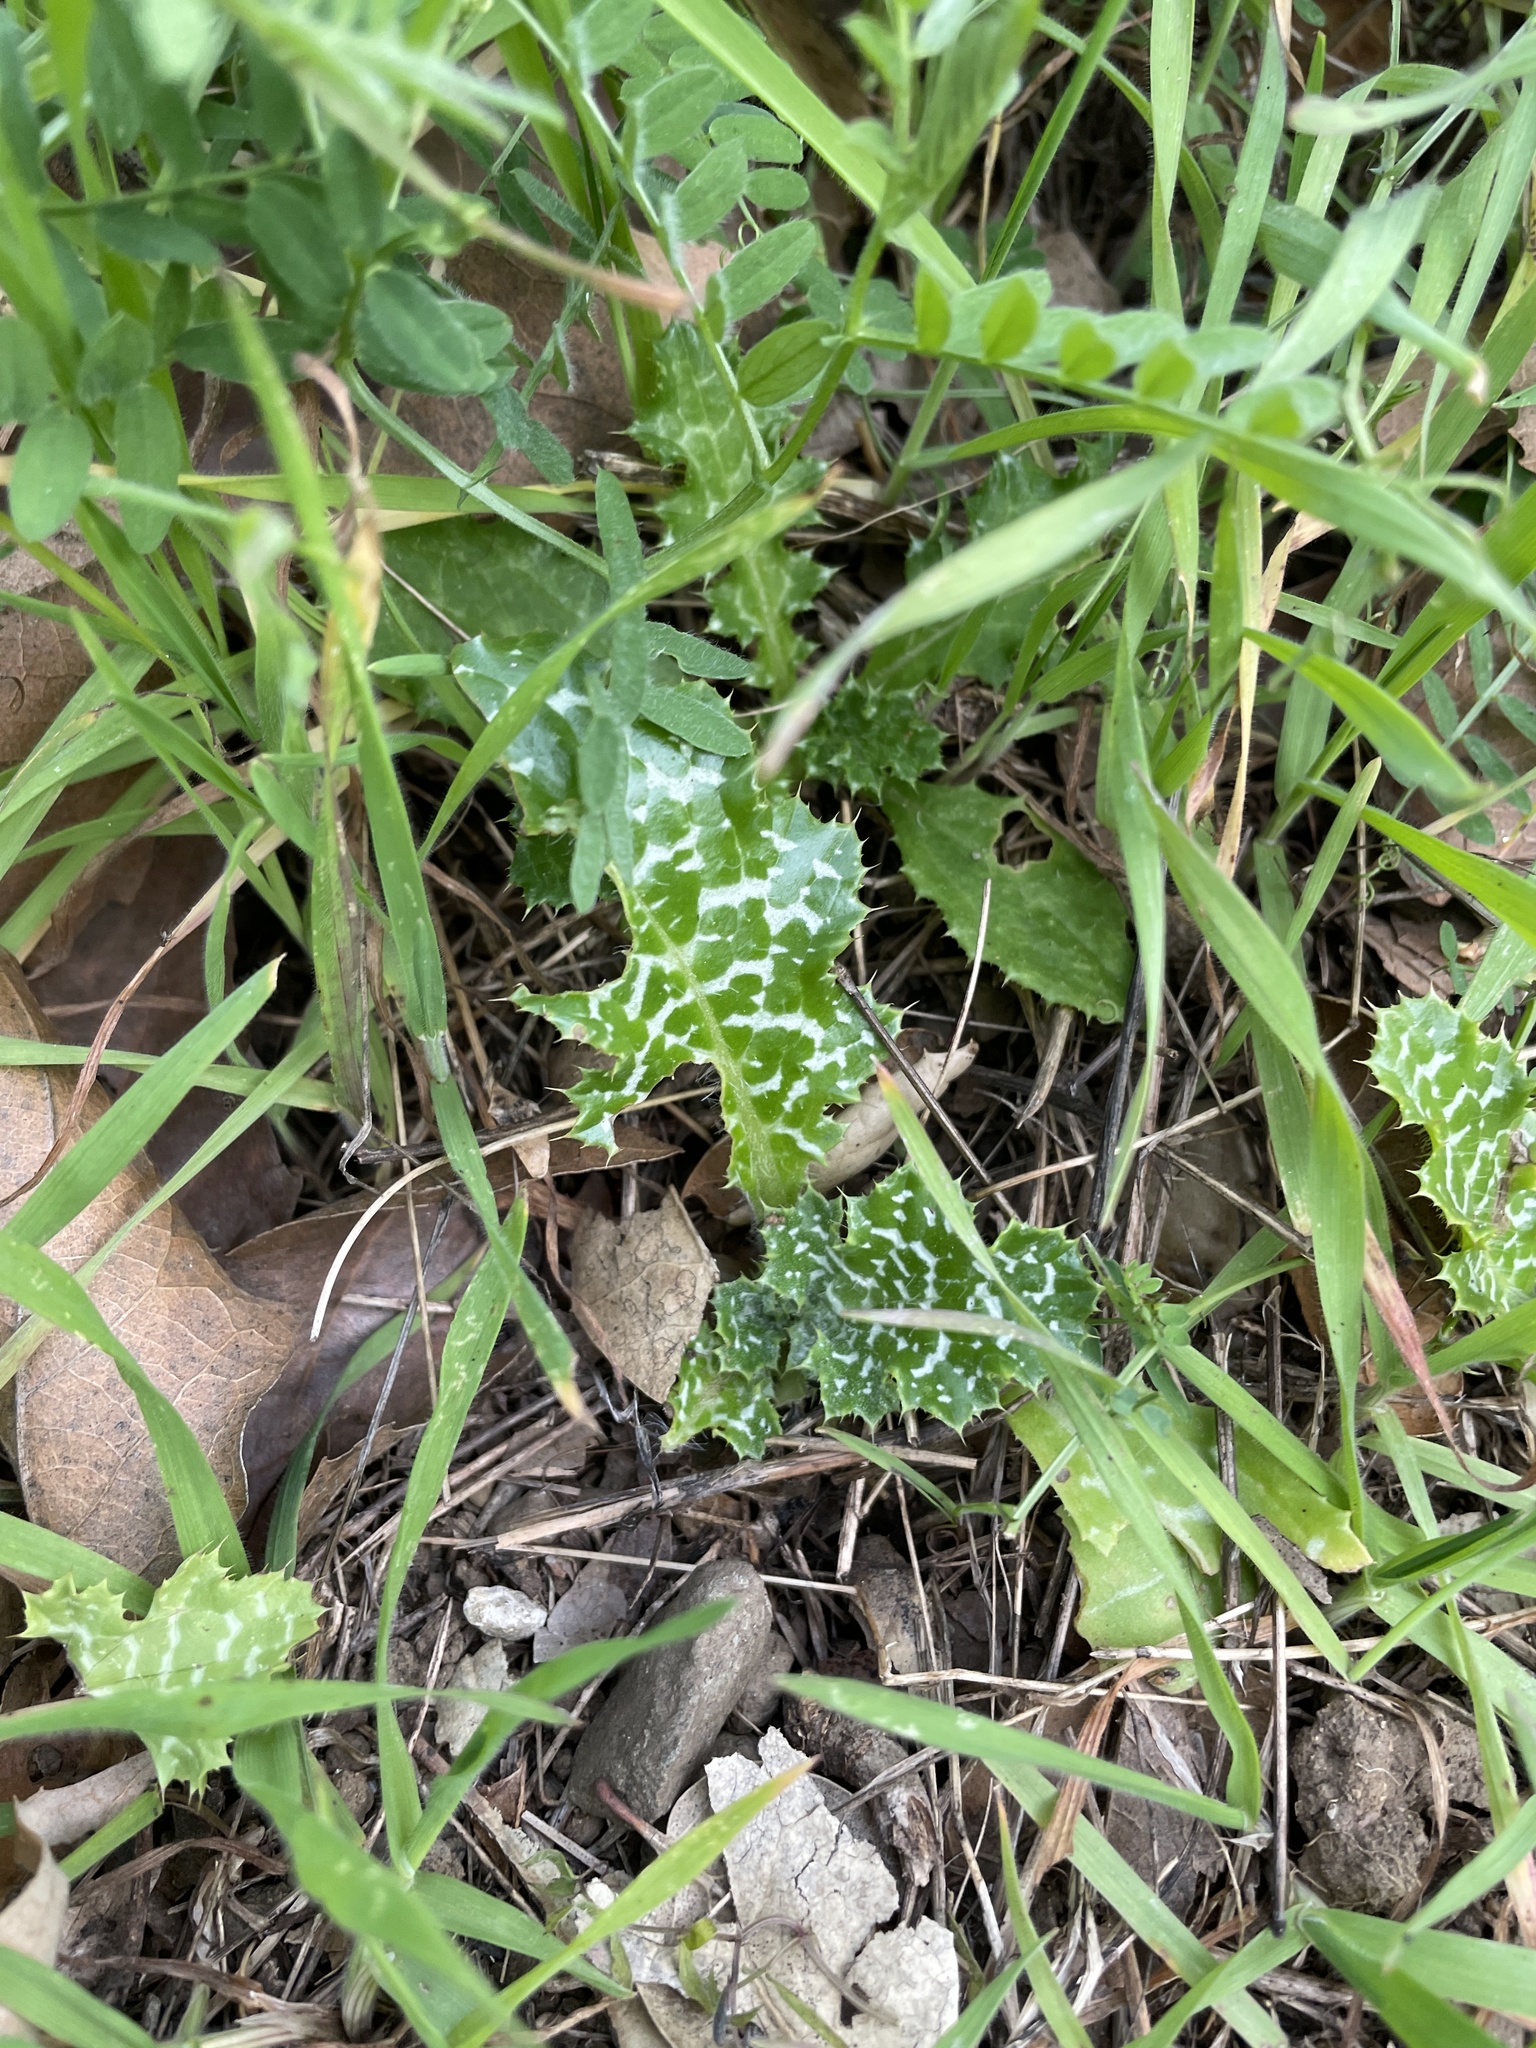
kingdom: Plantae
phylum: Tracheophyta
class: Magnoliopsida
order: Asterales
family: Asteraceae
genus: Silybum
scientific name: Silybum marianum
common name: Milk thistle
